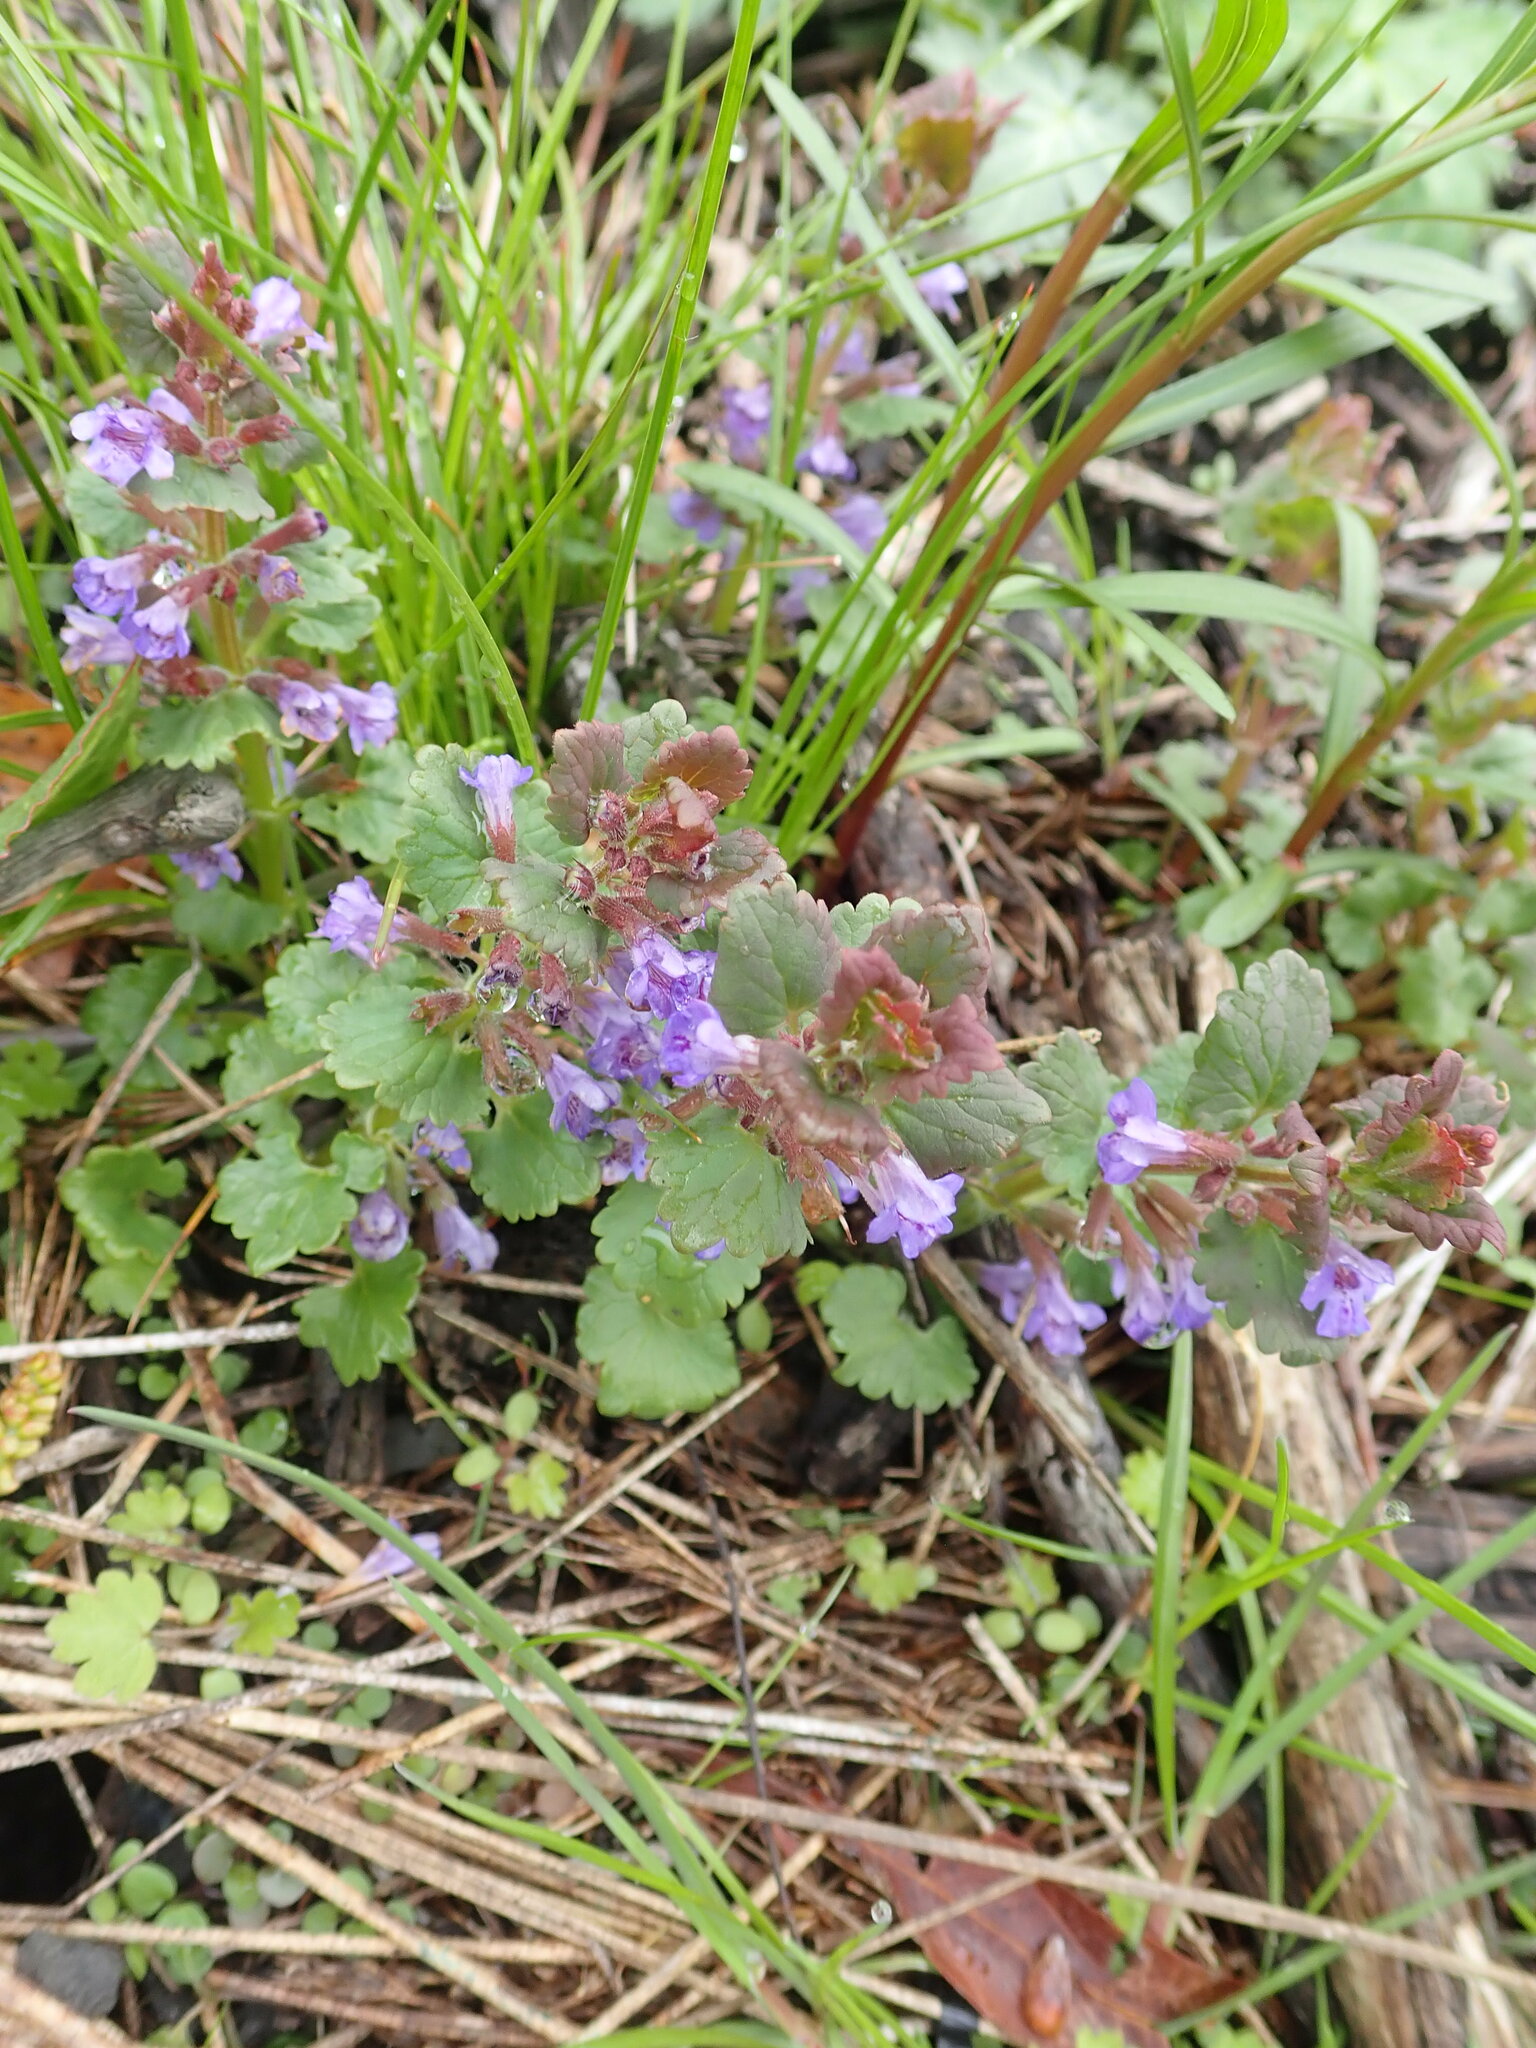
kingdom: Plantae
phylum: Tracheophyta
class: Magnoliopsida
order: Lamiales
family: Lamiaceae
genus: Glechoma
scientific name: Glechoma hederacea
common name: Ground ivy
